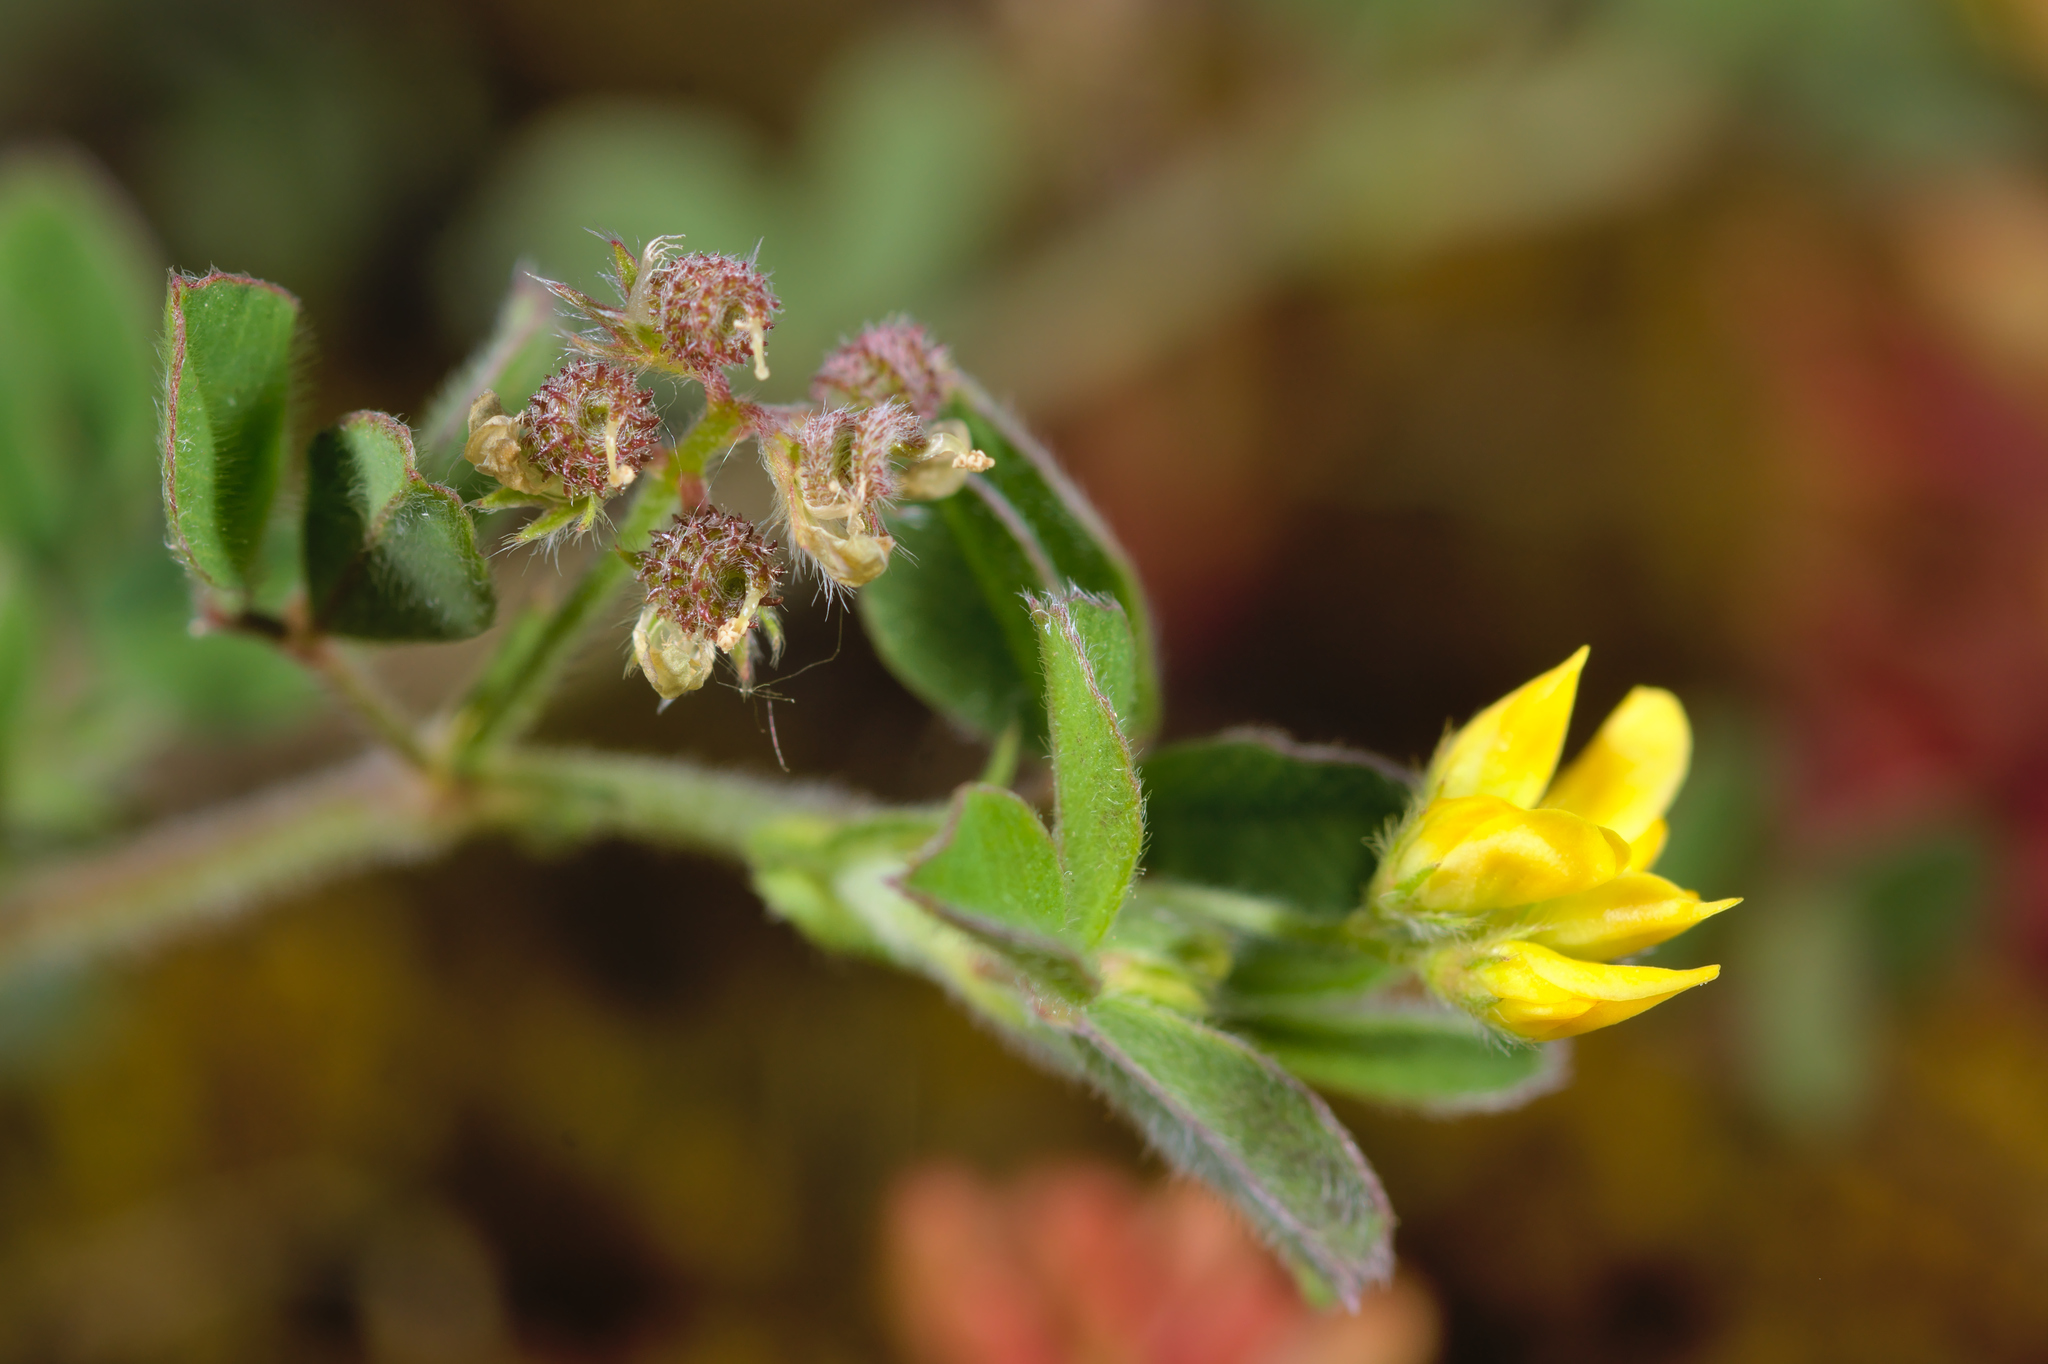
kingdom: Plantae
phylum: Tracheophyta
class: Magnoliopsida
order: Fabales
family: Fabaceae
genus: Medicago
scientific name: Medicago minima
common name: Little bur-clover
